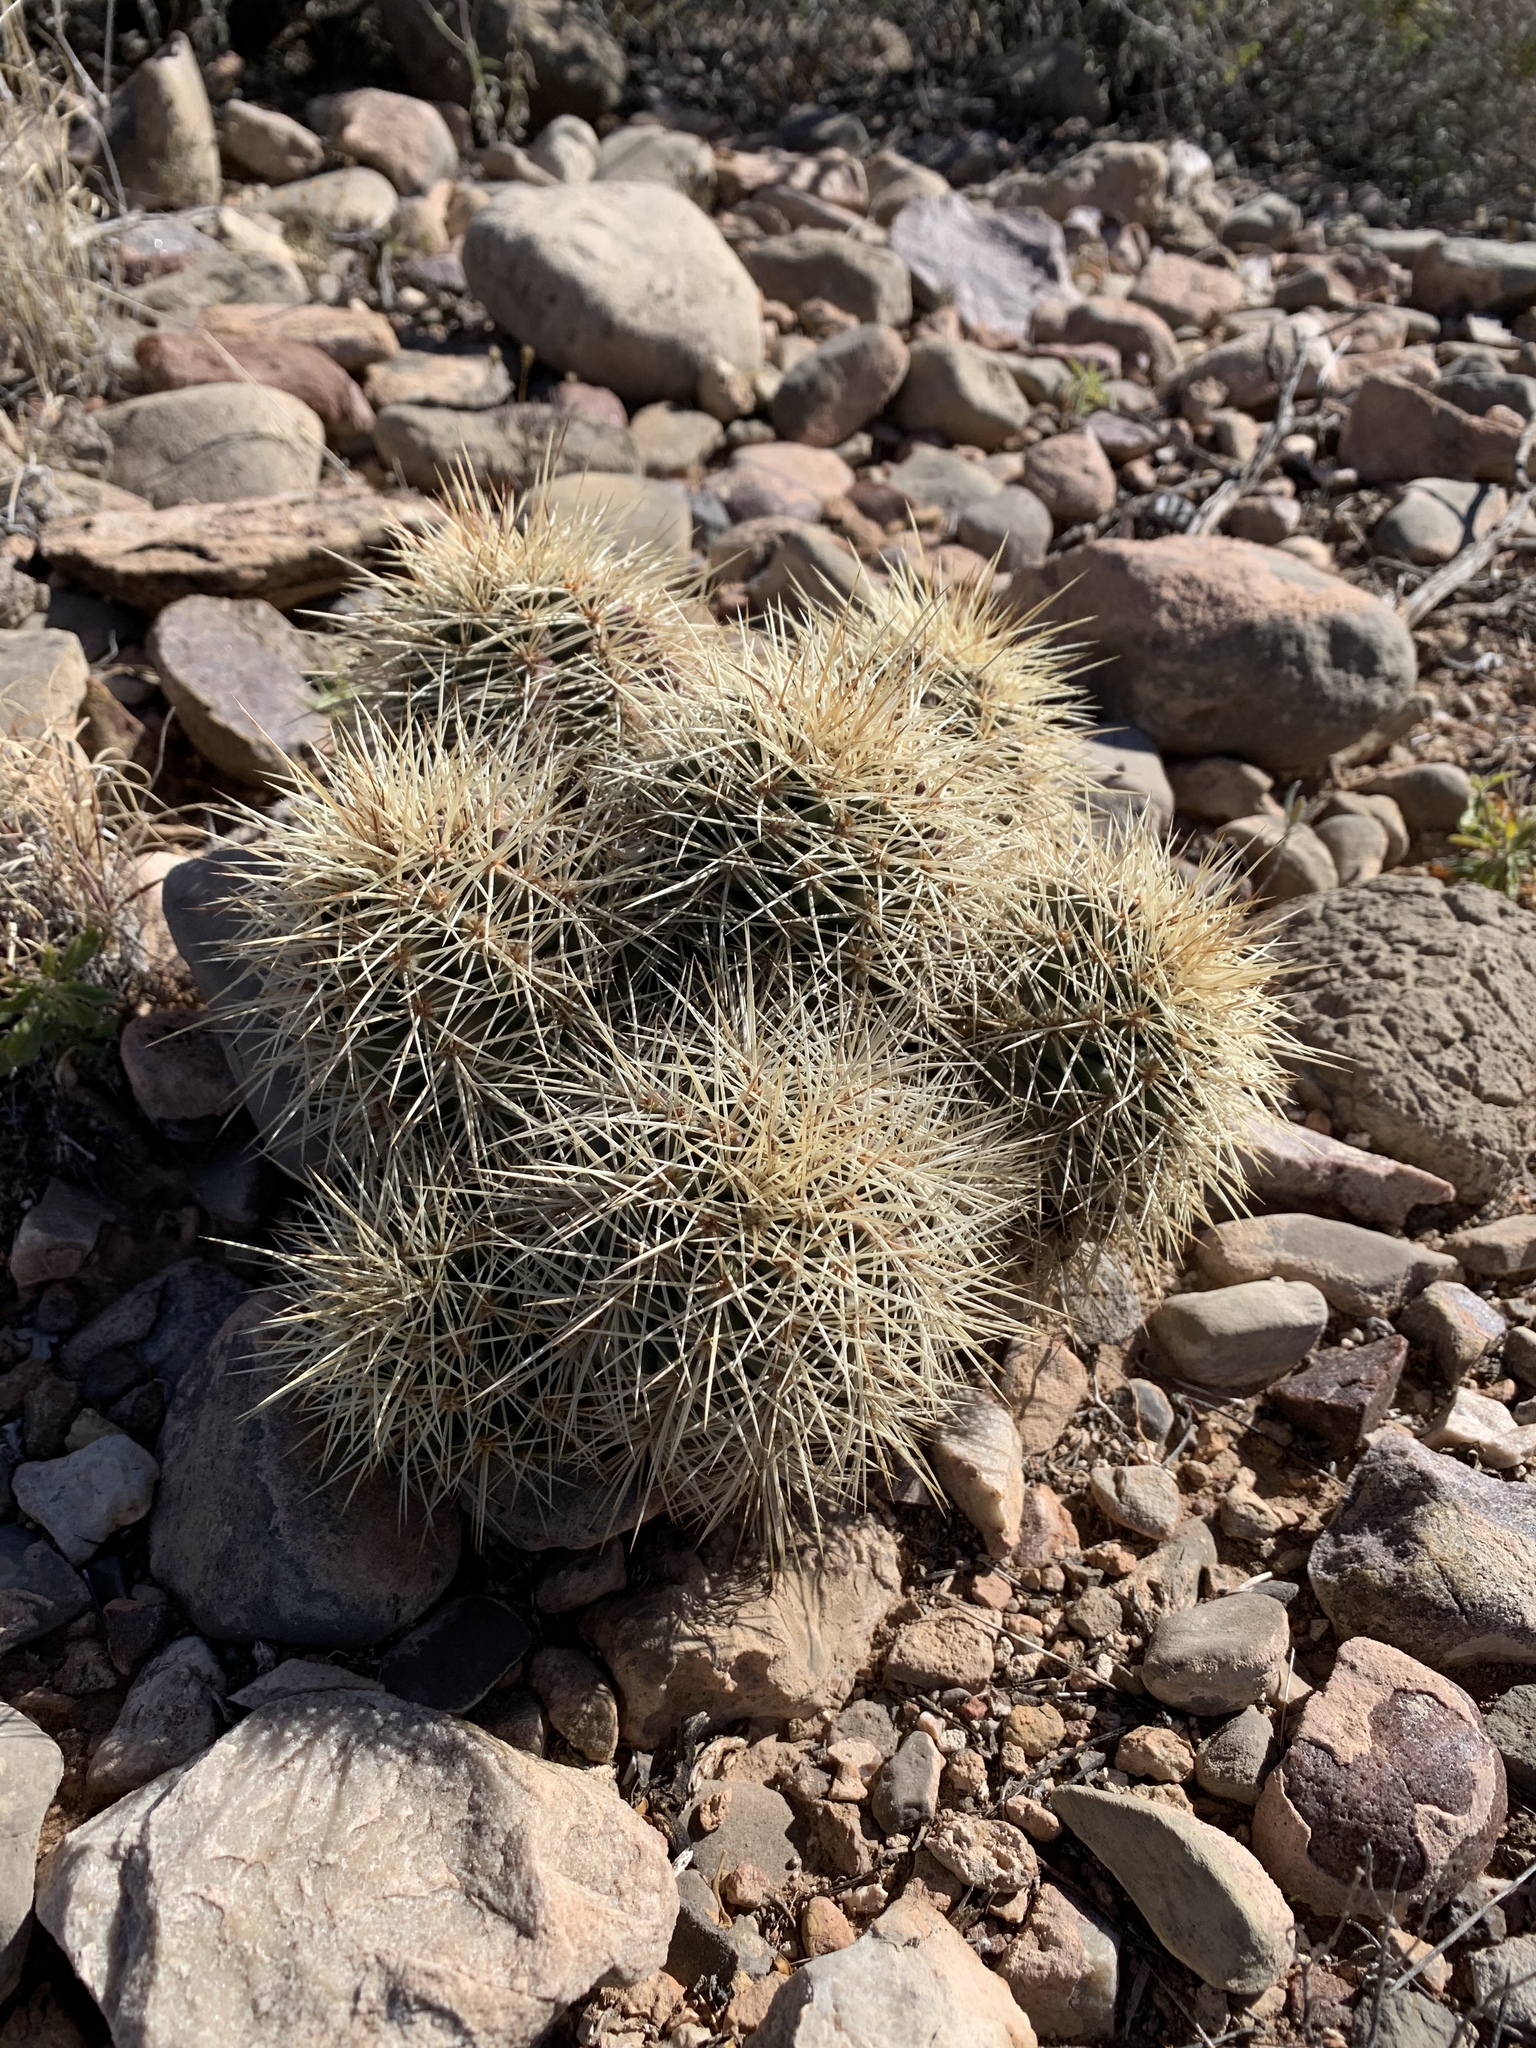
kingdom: Plantae
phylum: Tracheophyta
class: Magnoliopsida
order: Caryophyllales
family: Cactaceae
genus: Echinocereus
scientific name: Echinocereus coccineus
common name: Scarlet hedgehog cactus
